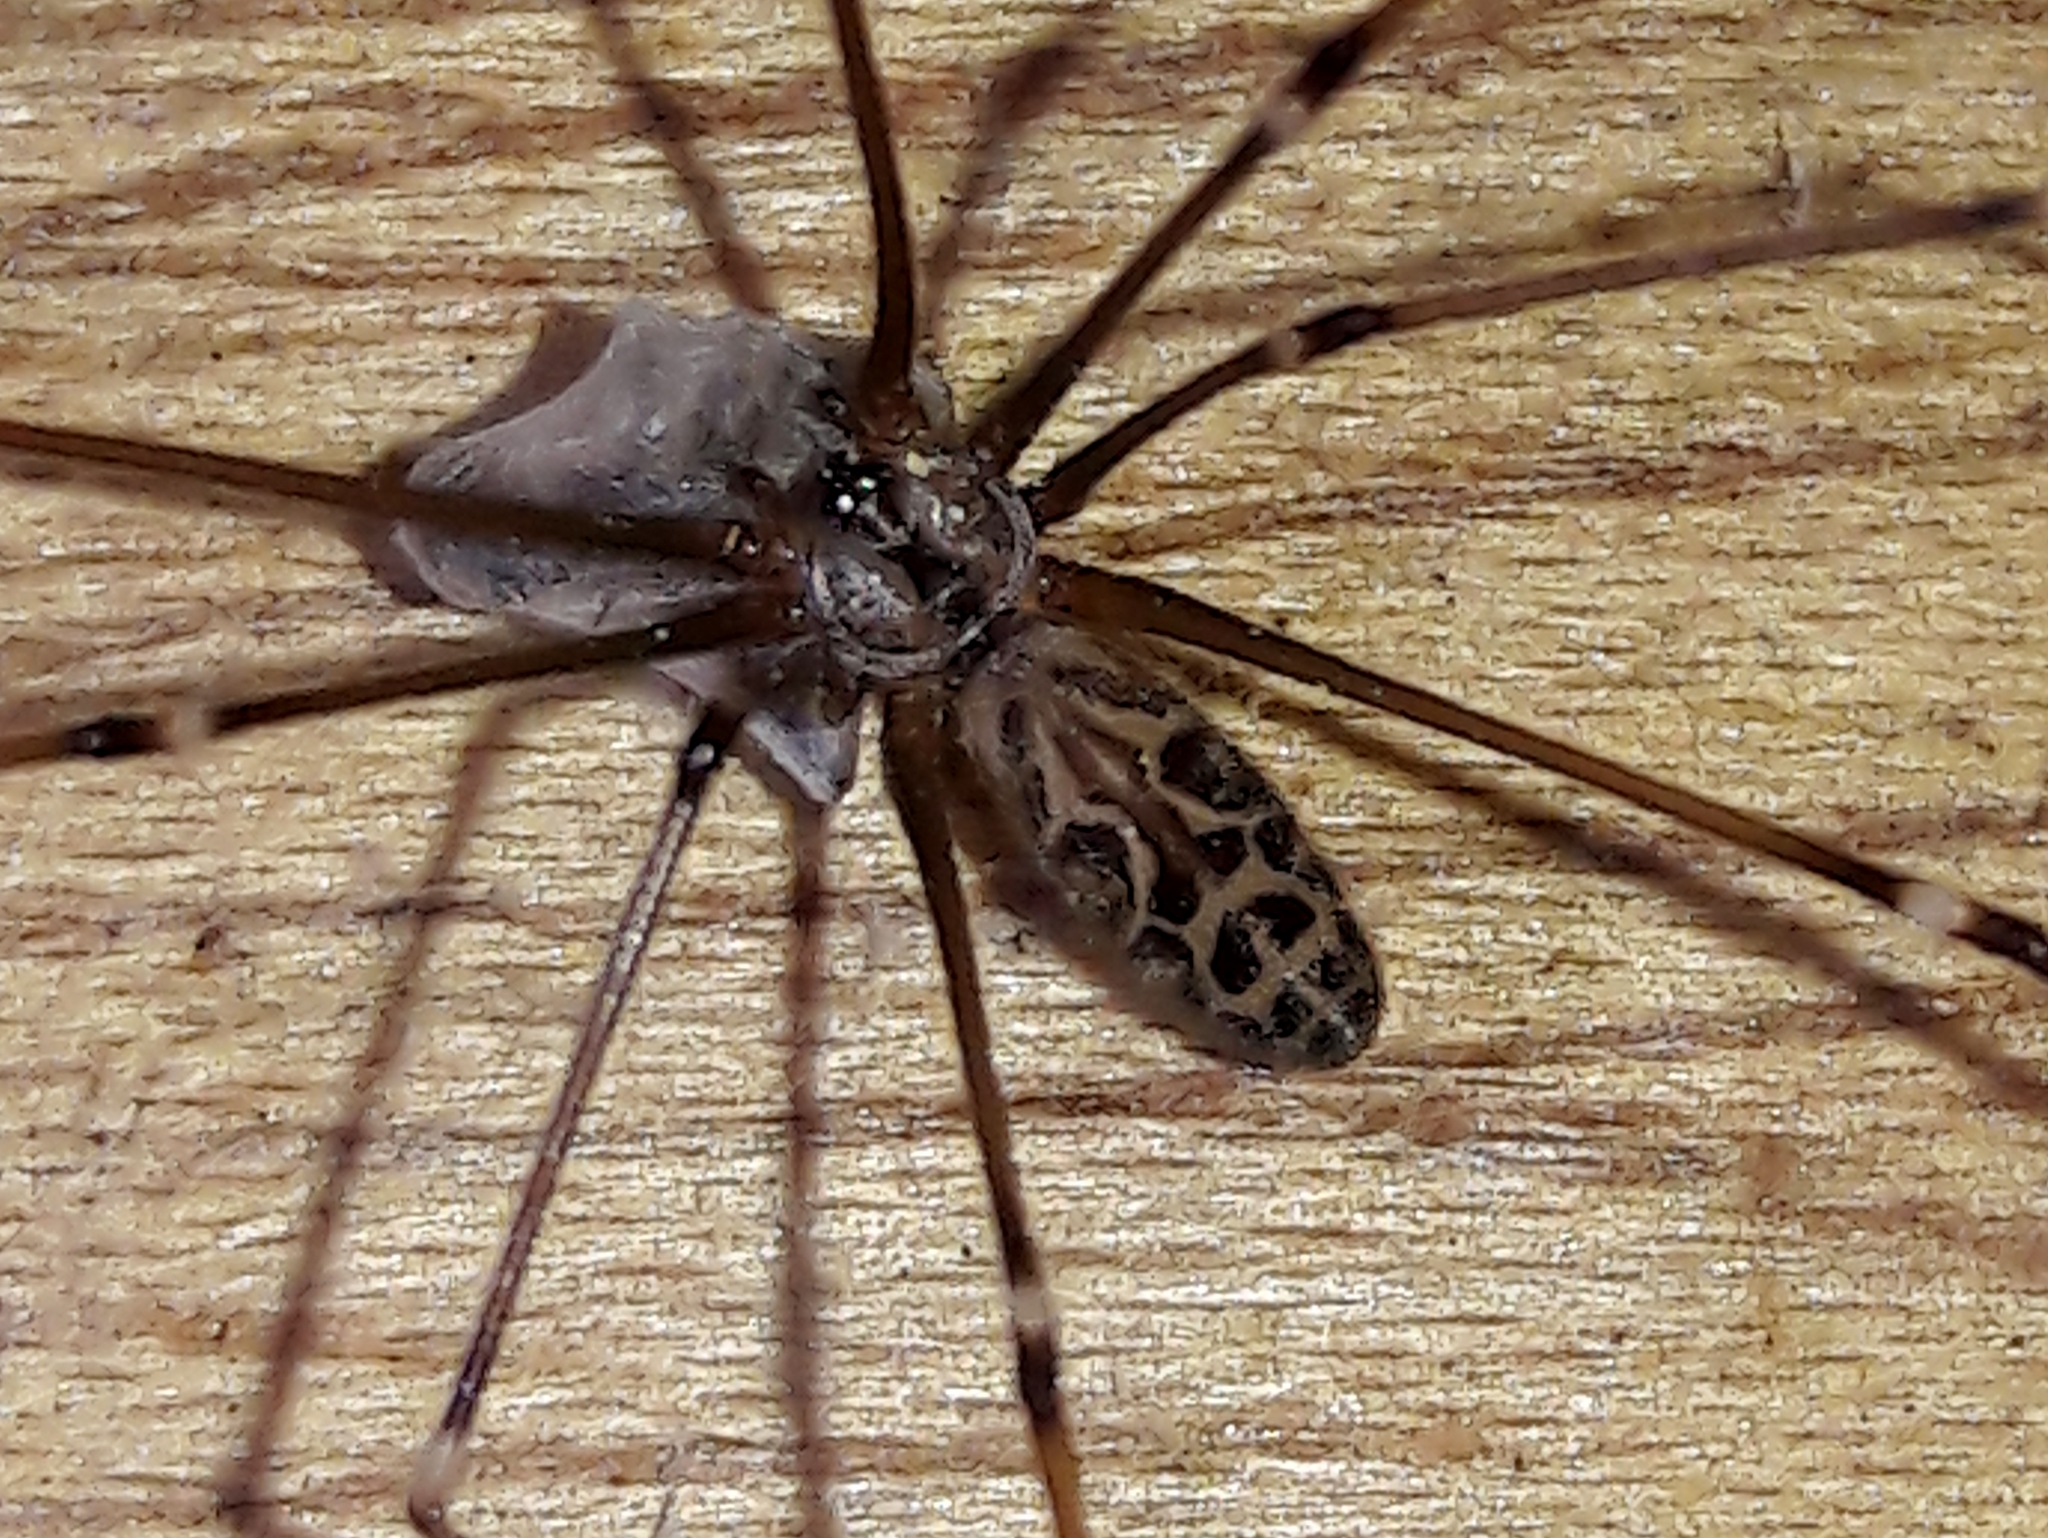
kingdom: Animalia
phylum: Arthropoda
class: Arachnida
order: Araneae
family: Pholcidae
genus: Smeringopus
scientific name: Smeringopus pallidus
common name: Cellar spider
